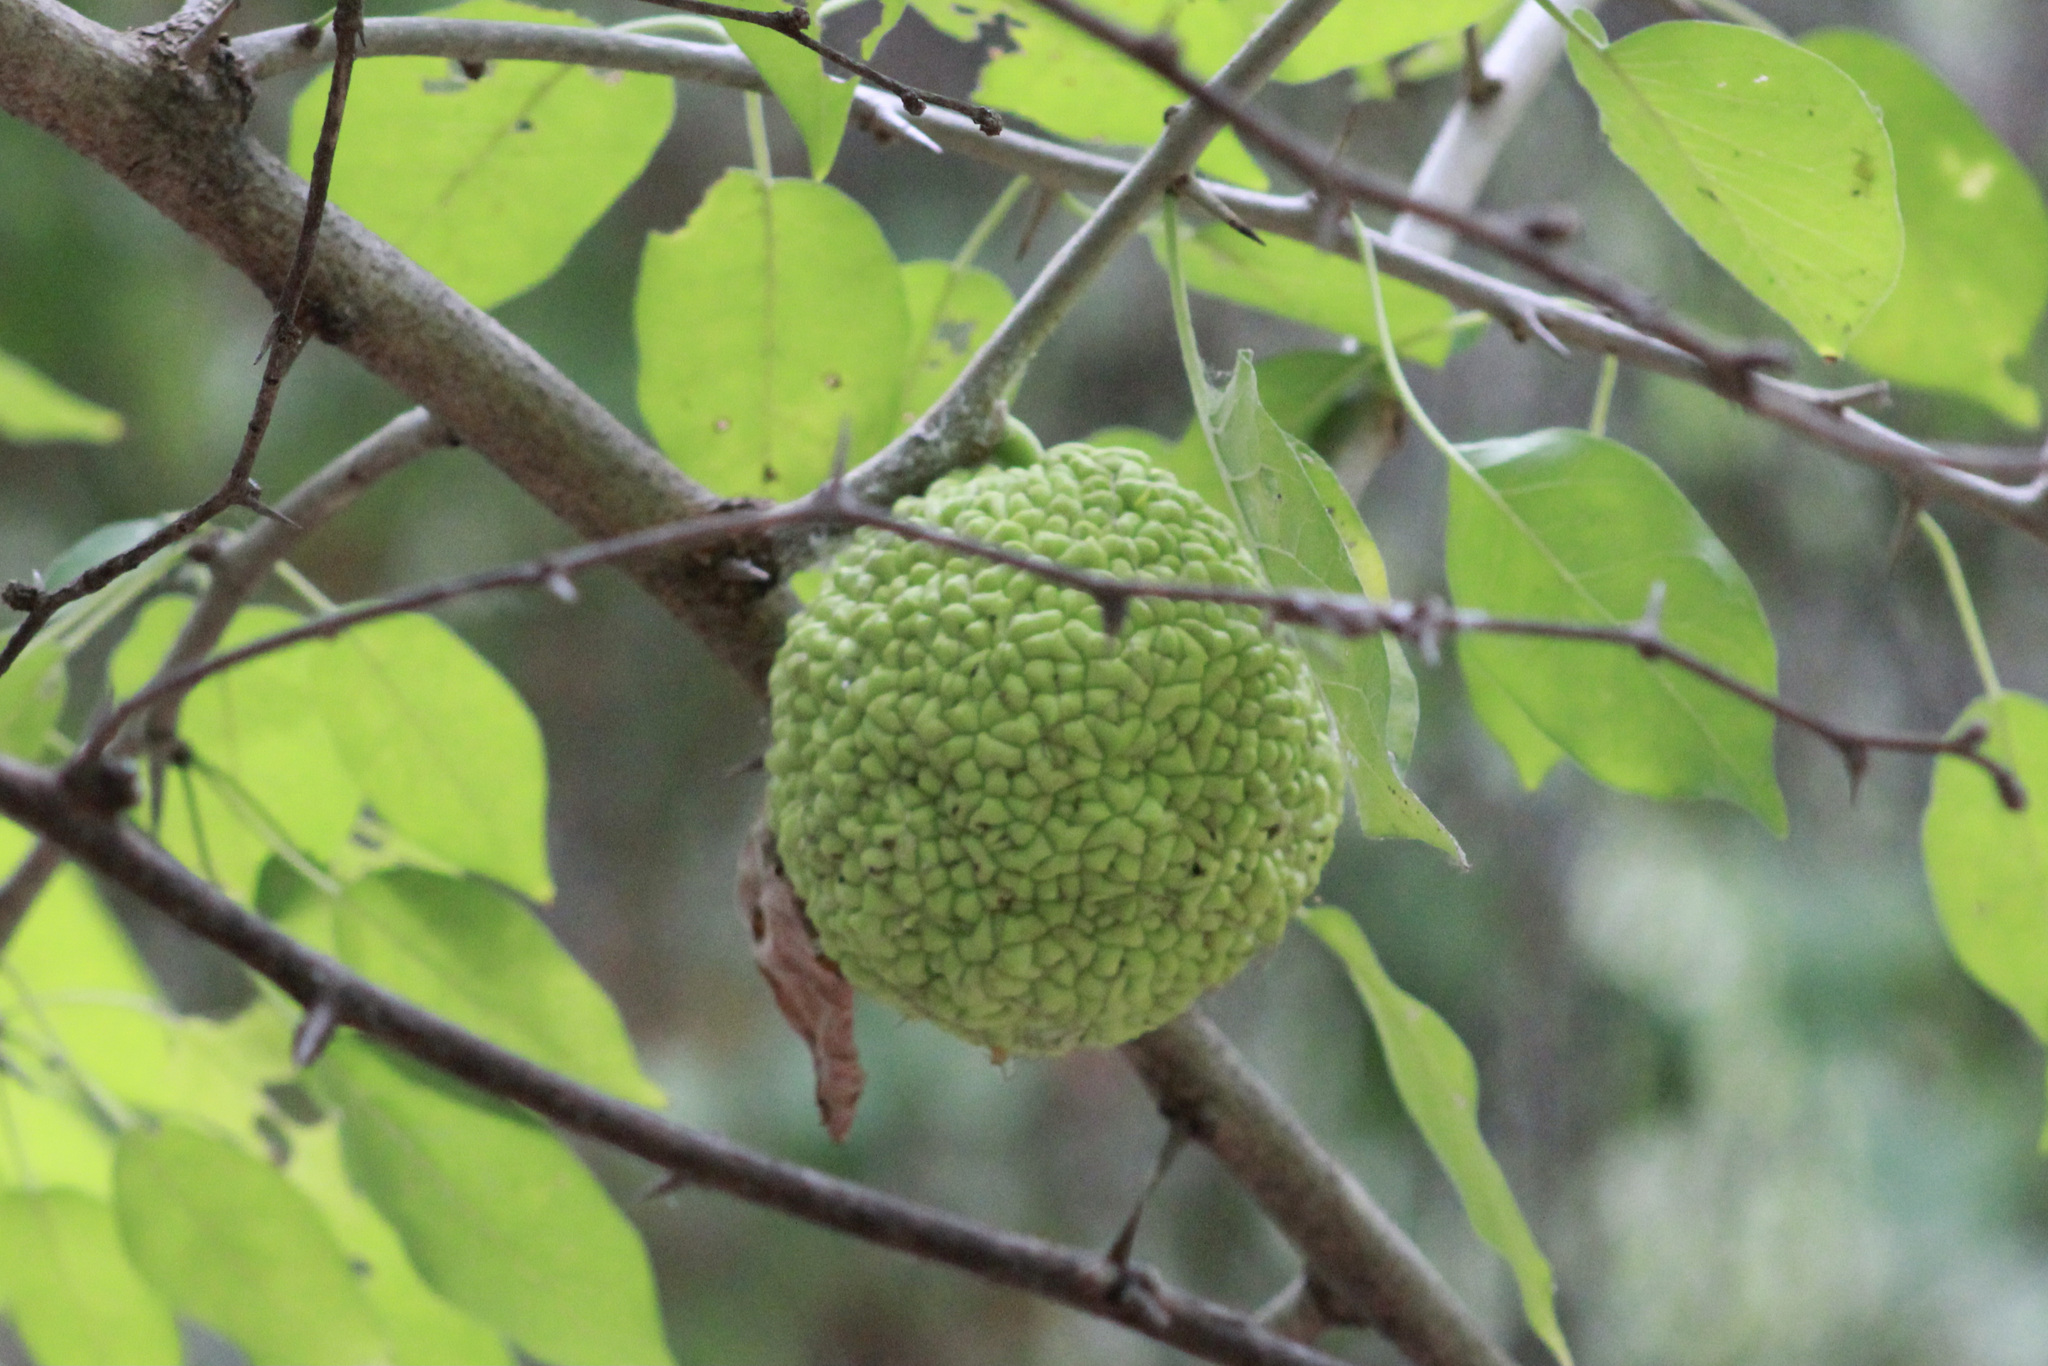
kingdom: Plantae
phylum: Tracheophyta
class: Magnoliopsida
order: Rosales
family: Moraceae
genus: Maclura
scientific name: Maclura pomifera
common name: Osage-orange
